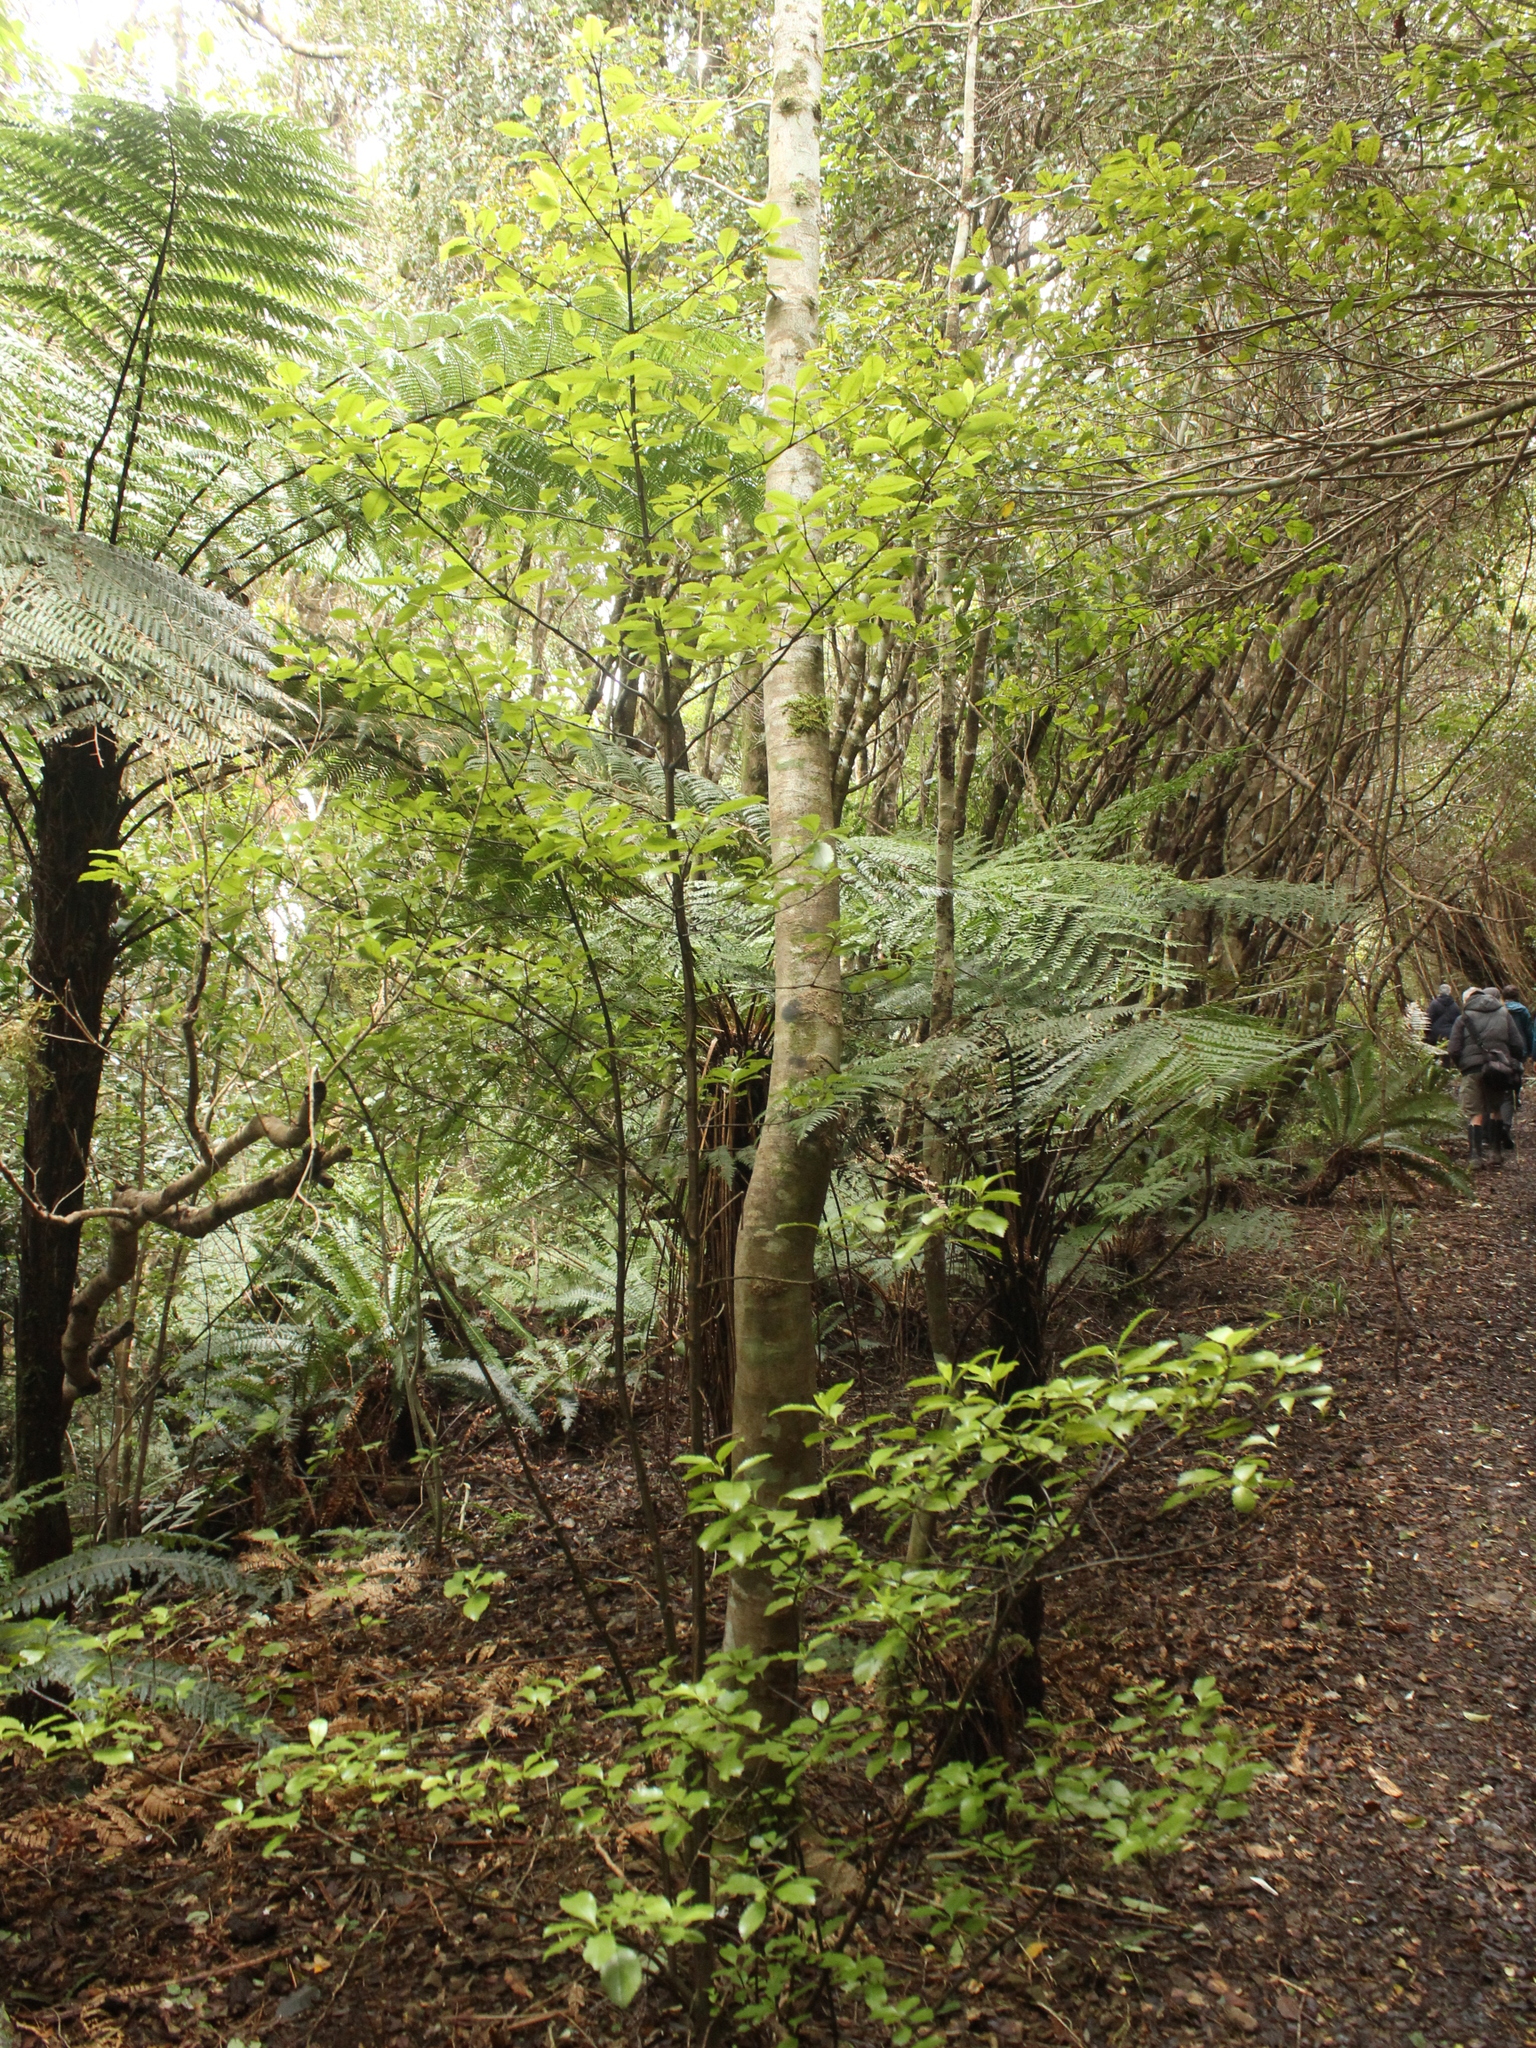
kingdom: Plantae
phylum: Tracheophyta
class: Magnoliopsida
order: Chloranthales
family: Chloranthaceae
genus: Ascarina
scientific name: Ascarina lucida
